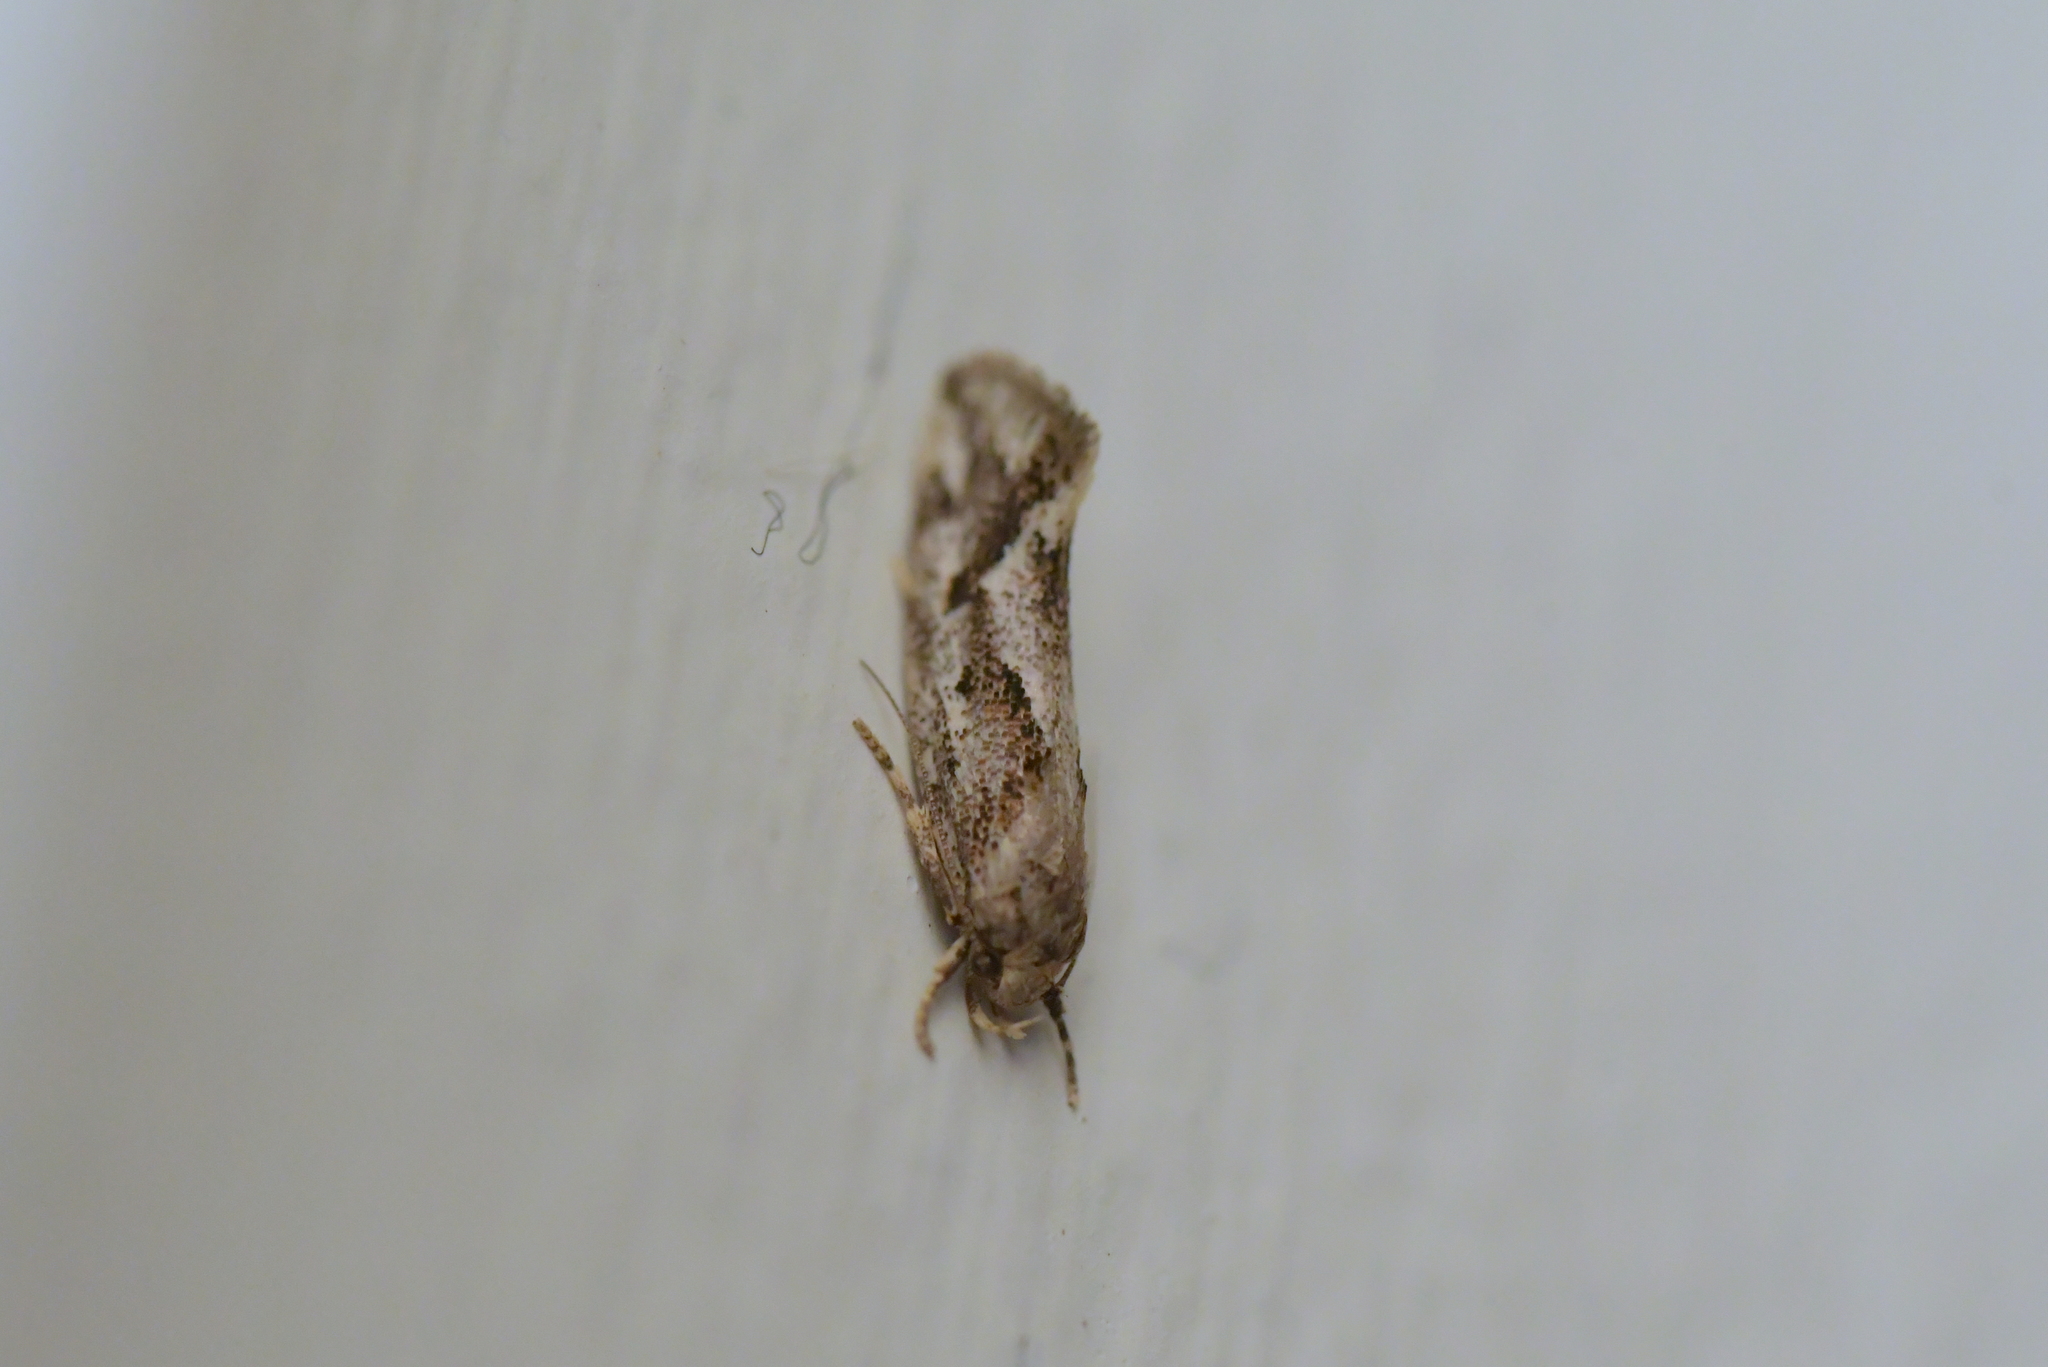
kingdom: Animalia
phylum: Arthropoda
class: Insecta
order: Lepidoptera
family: Oecophoridae
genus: Tingena
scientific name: Tingena hemimochla
